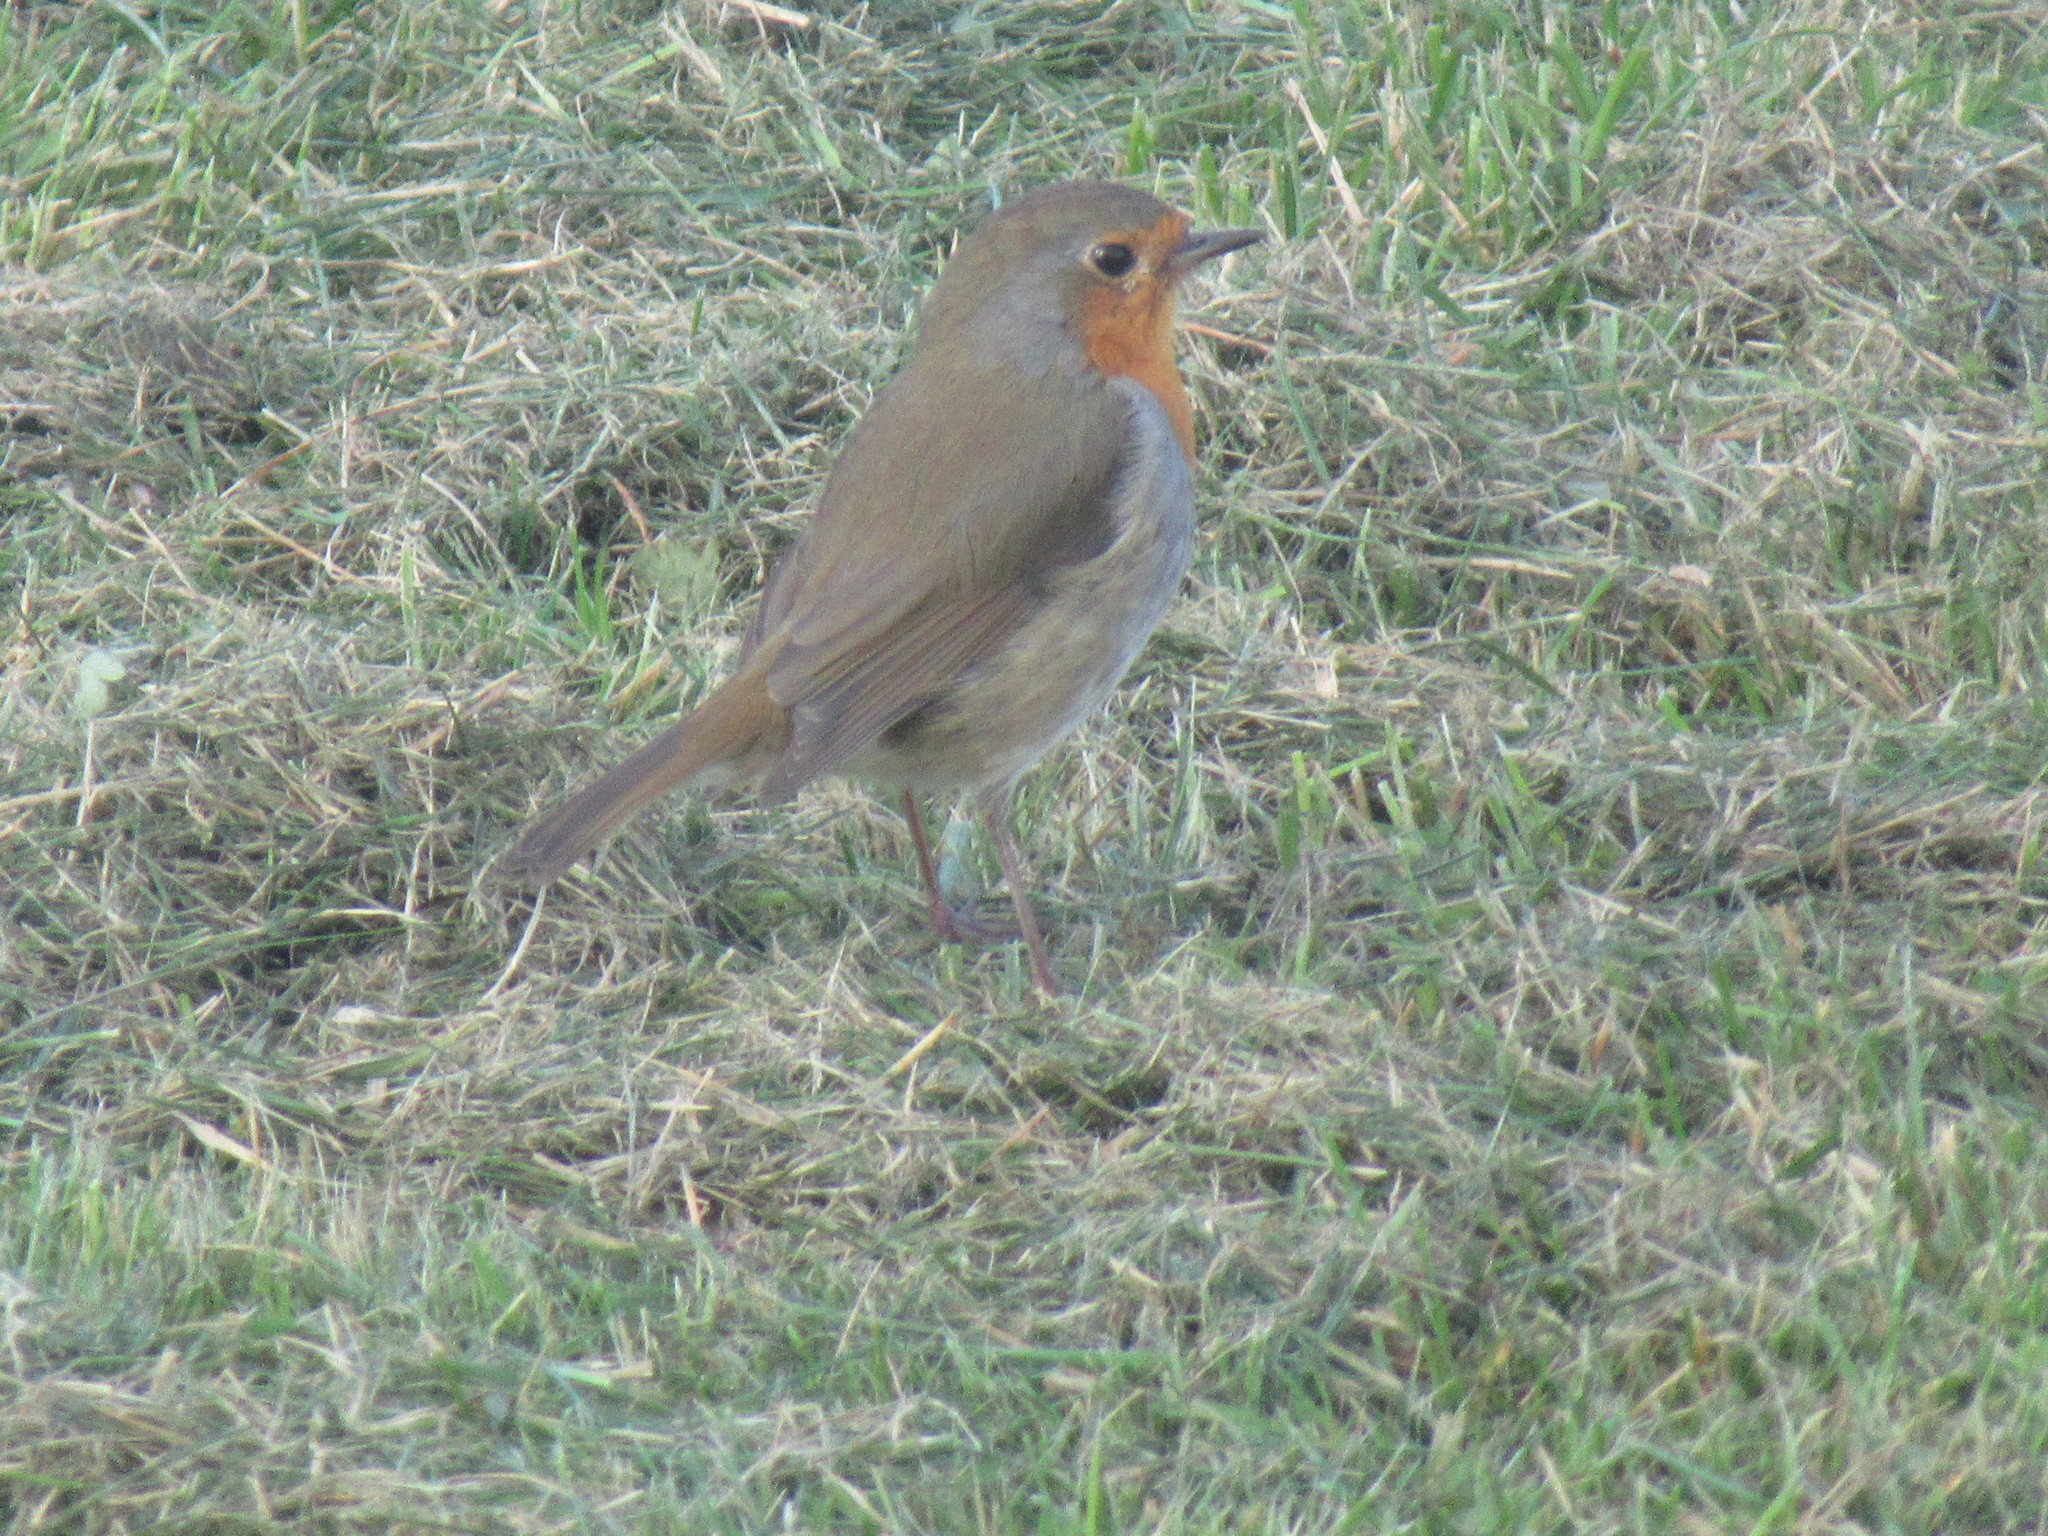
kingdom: Animalia
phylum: Chordata
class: Aves
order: Passeriformes
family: Muscicapidae
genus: Erithacus
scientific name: Erithacus rubecula
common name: European robin
